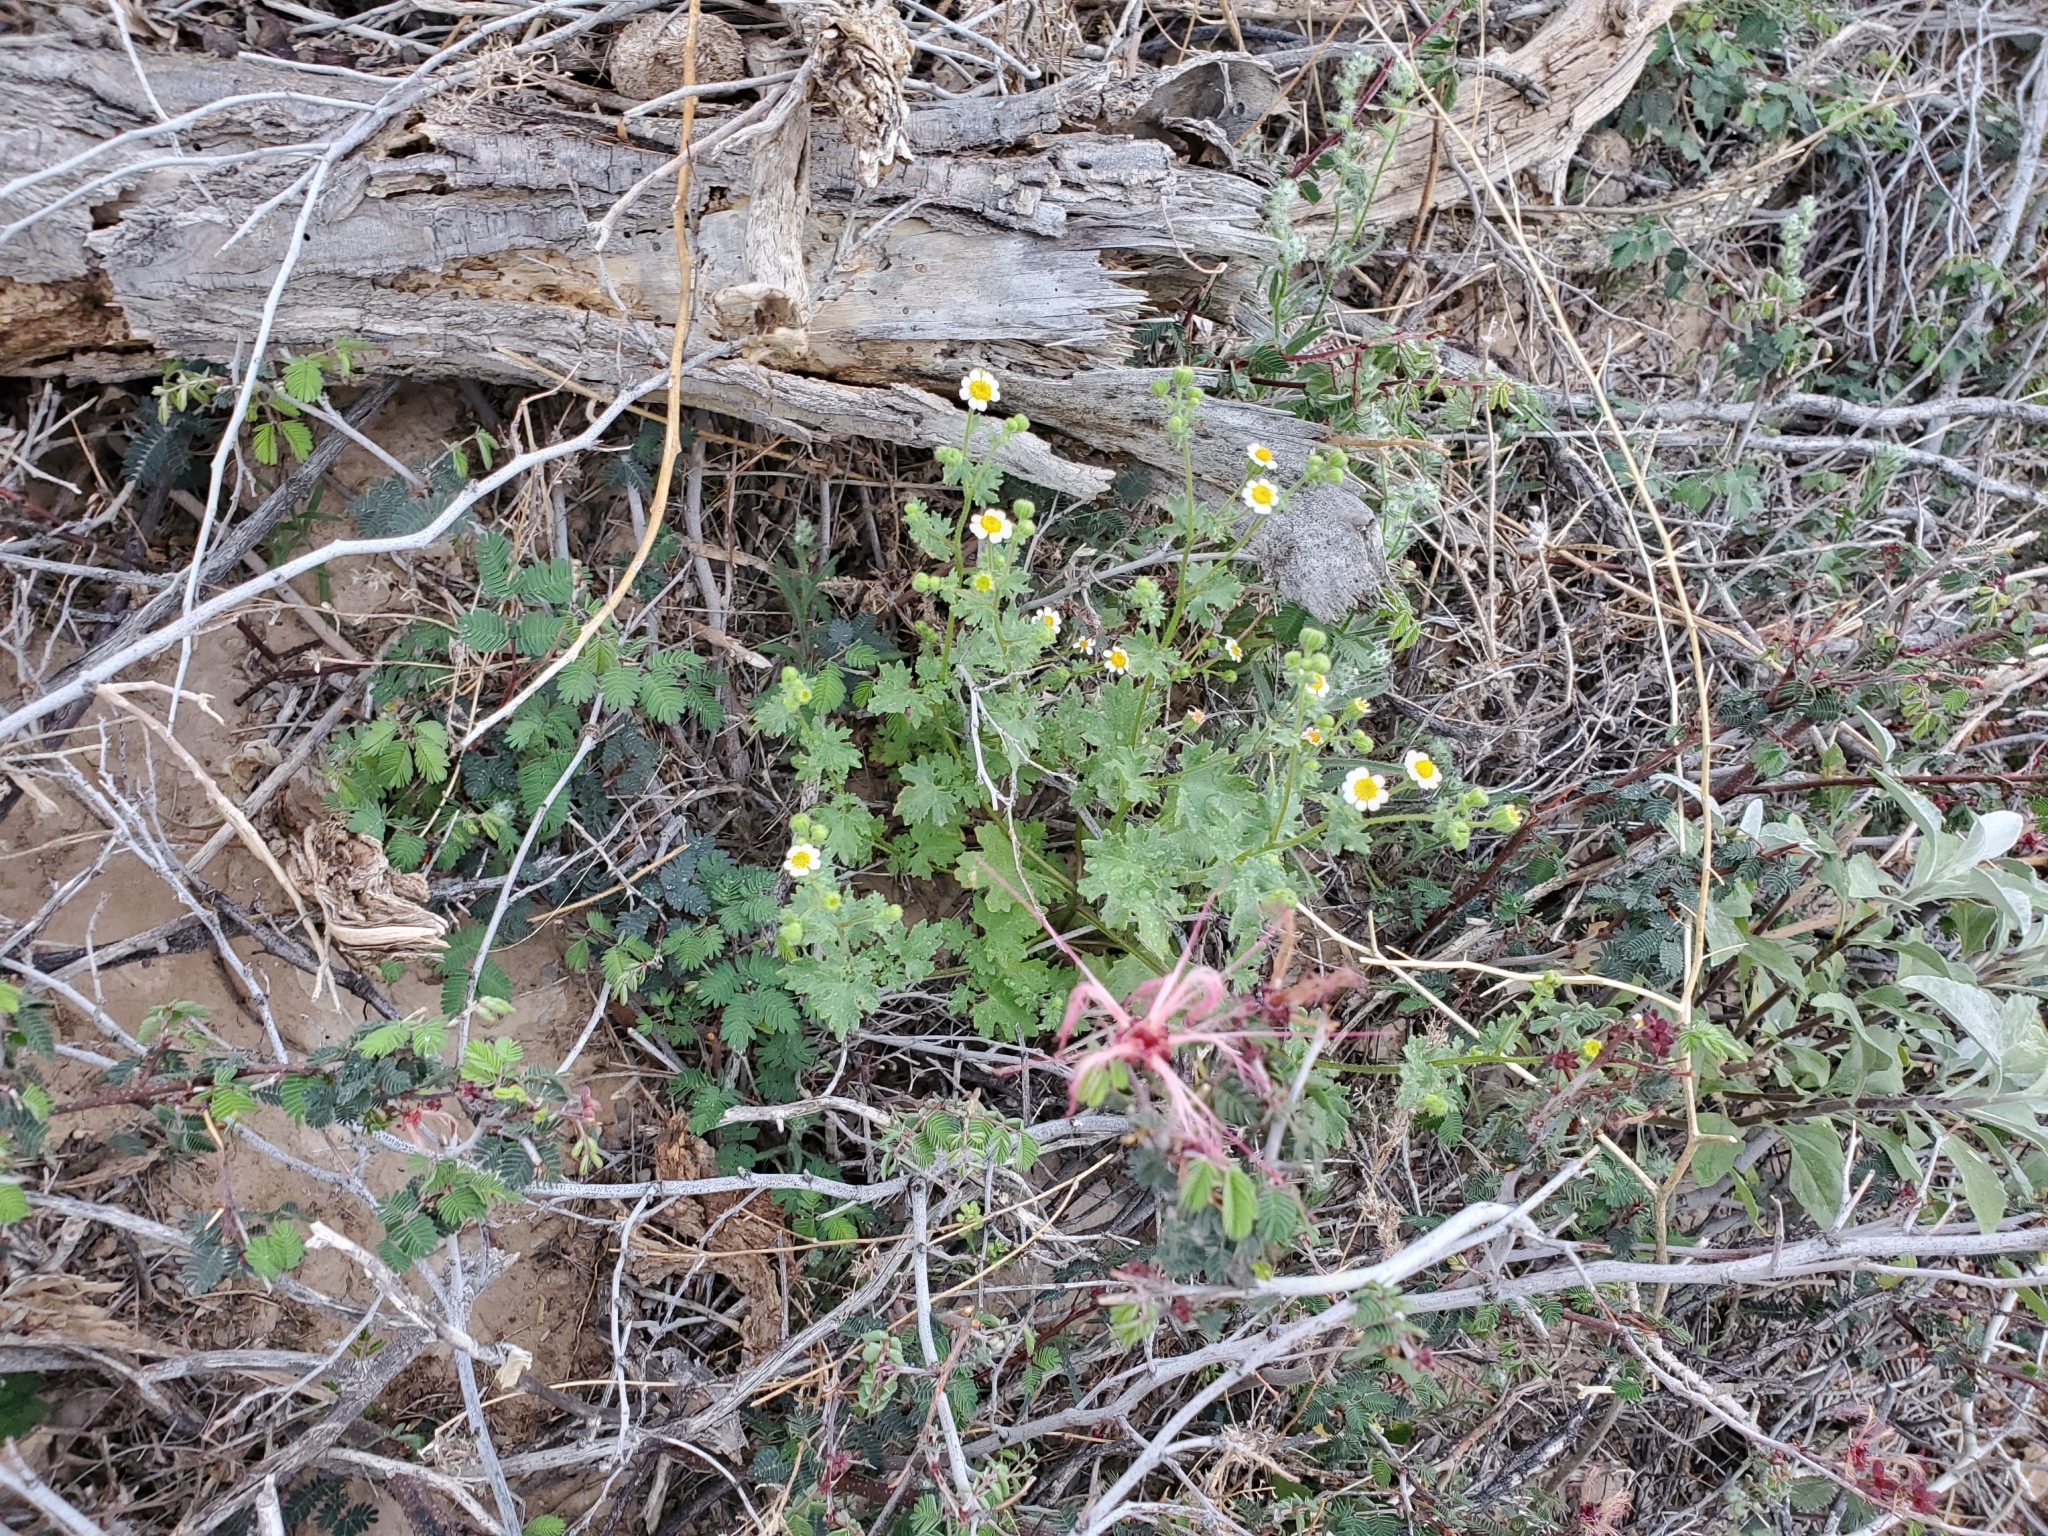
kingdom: Plantae
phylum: Tracheophyta
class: Magnoliopsida
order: Asterales
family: Asteraceae
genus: Laphamia
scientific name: Laphamia emoryi
